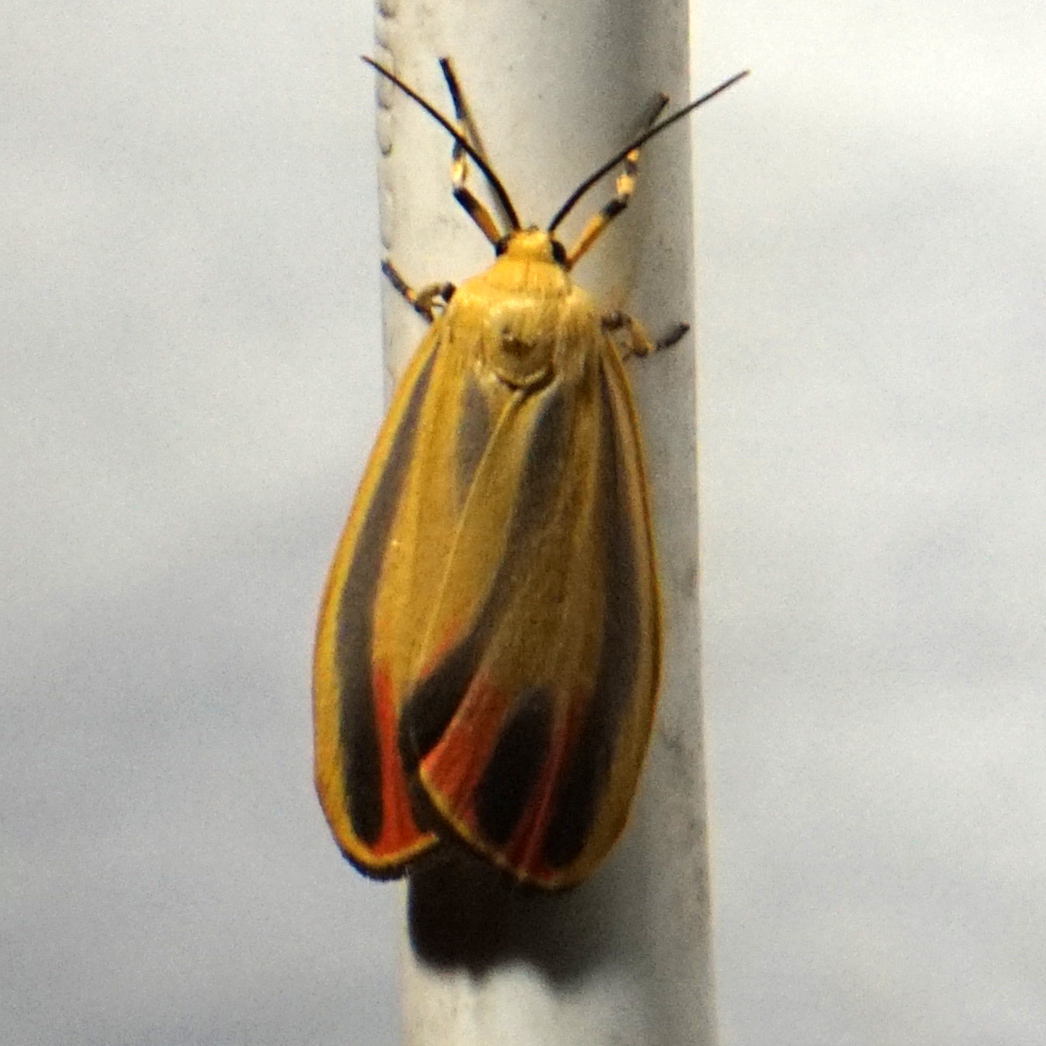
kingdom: Animalia
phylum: Arthropoda
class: Insecta
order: Lepidoptera
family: Erebidae
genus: Hypoprepia
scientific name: Hypoprepia fucosa
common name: Painted lichen moth
